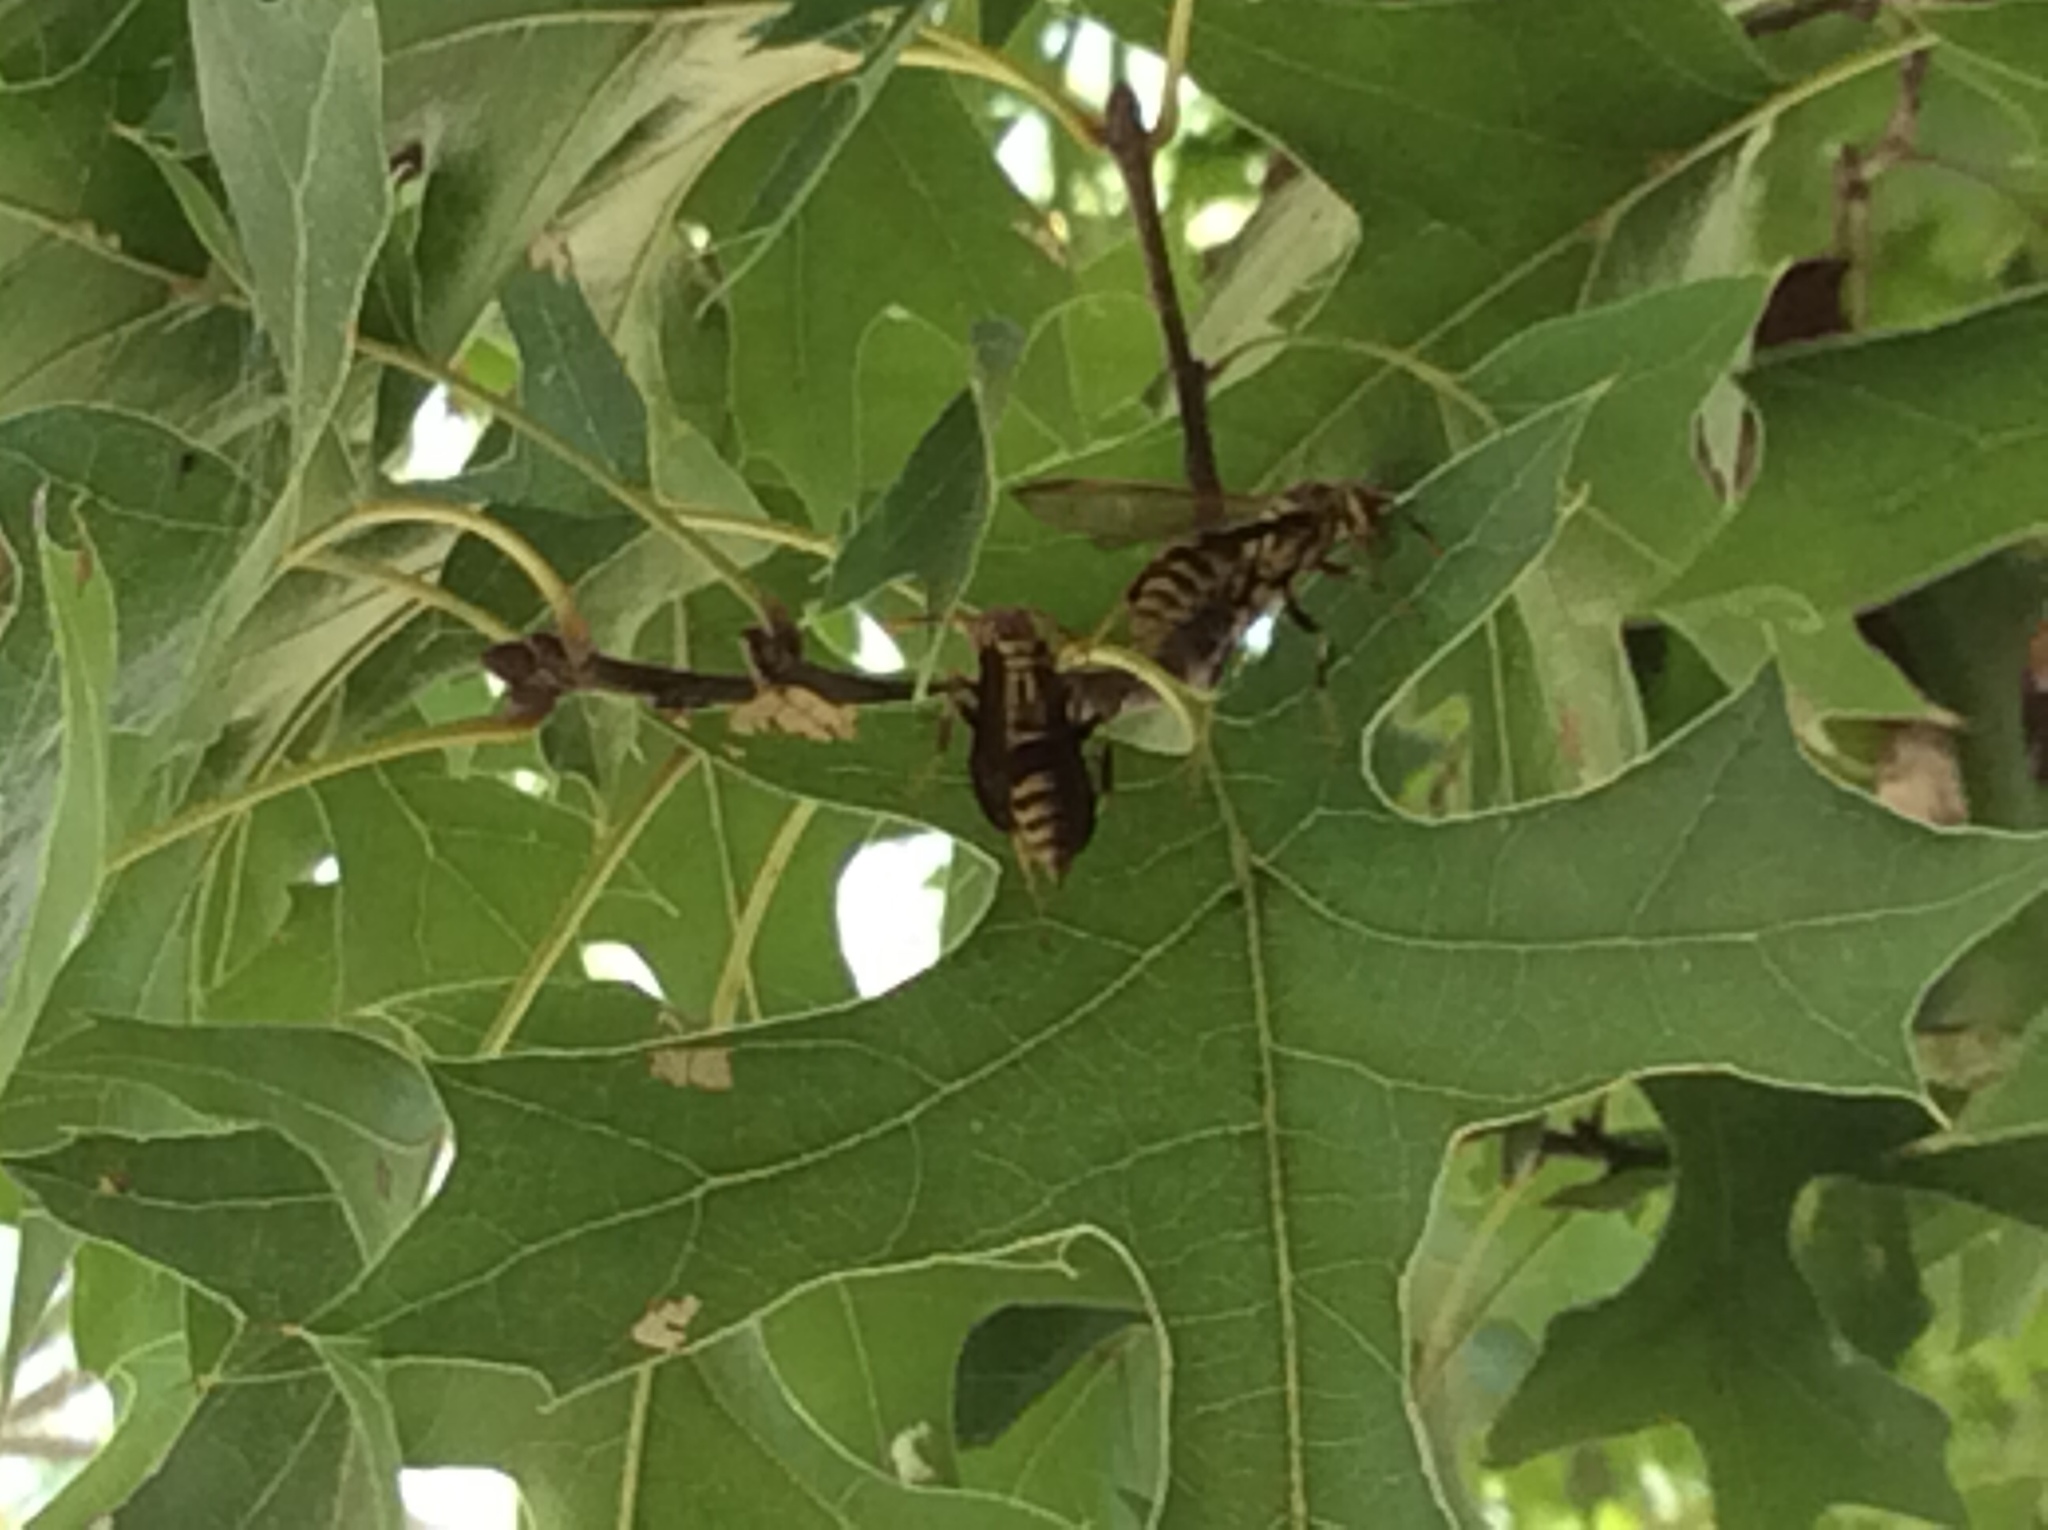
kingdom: Animalia
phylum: Arthropoda
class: Insecta
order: Hymenoptera
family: Eumenidae
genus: Polistes
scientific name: Polistes exclamans
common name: Paper wasp
